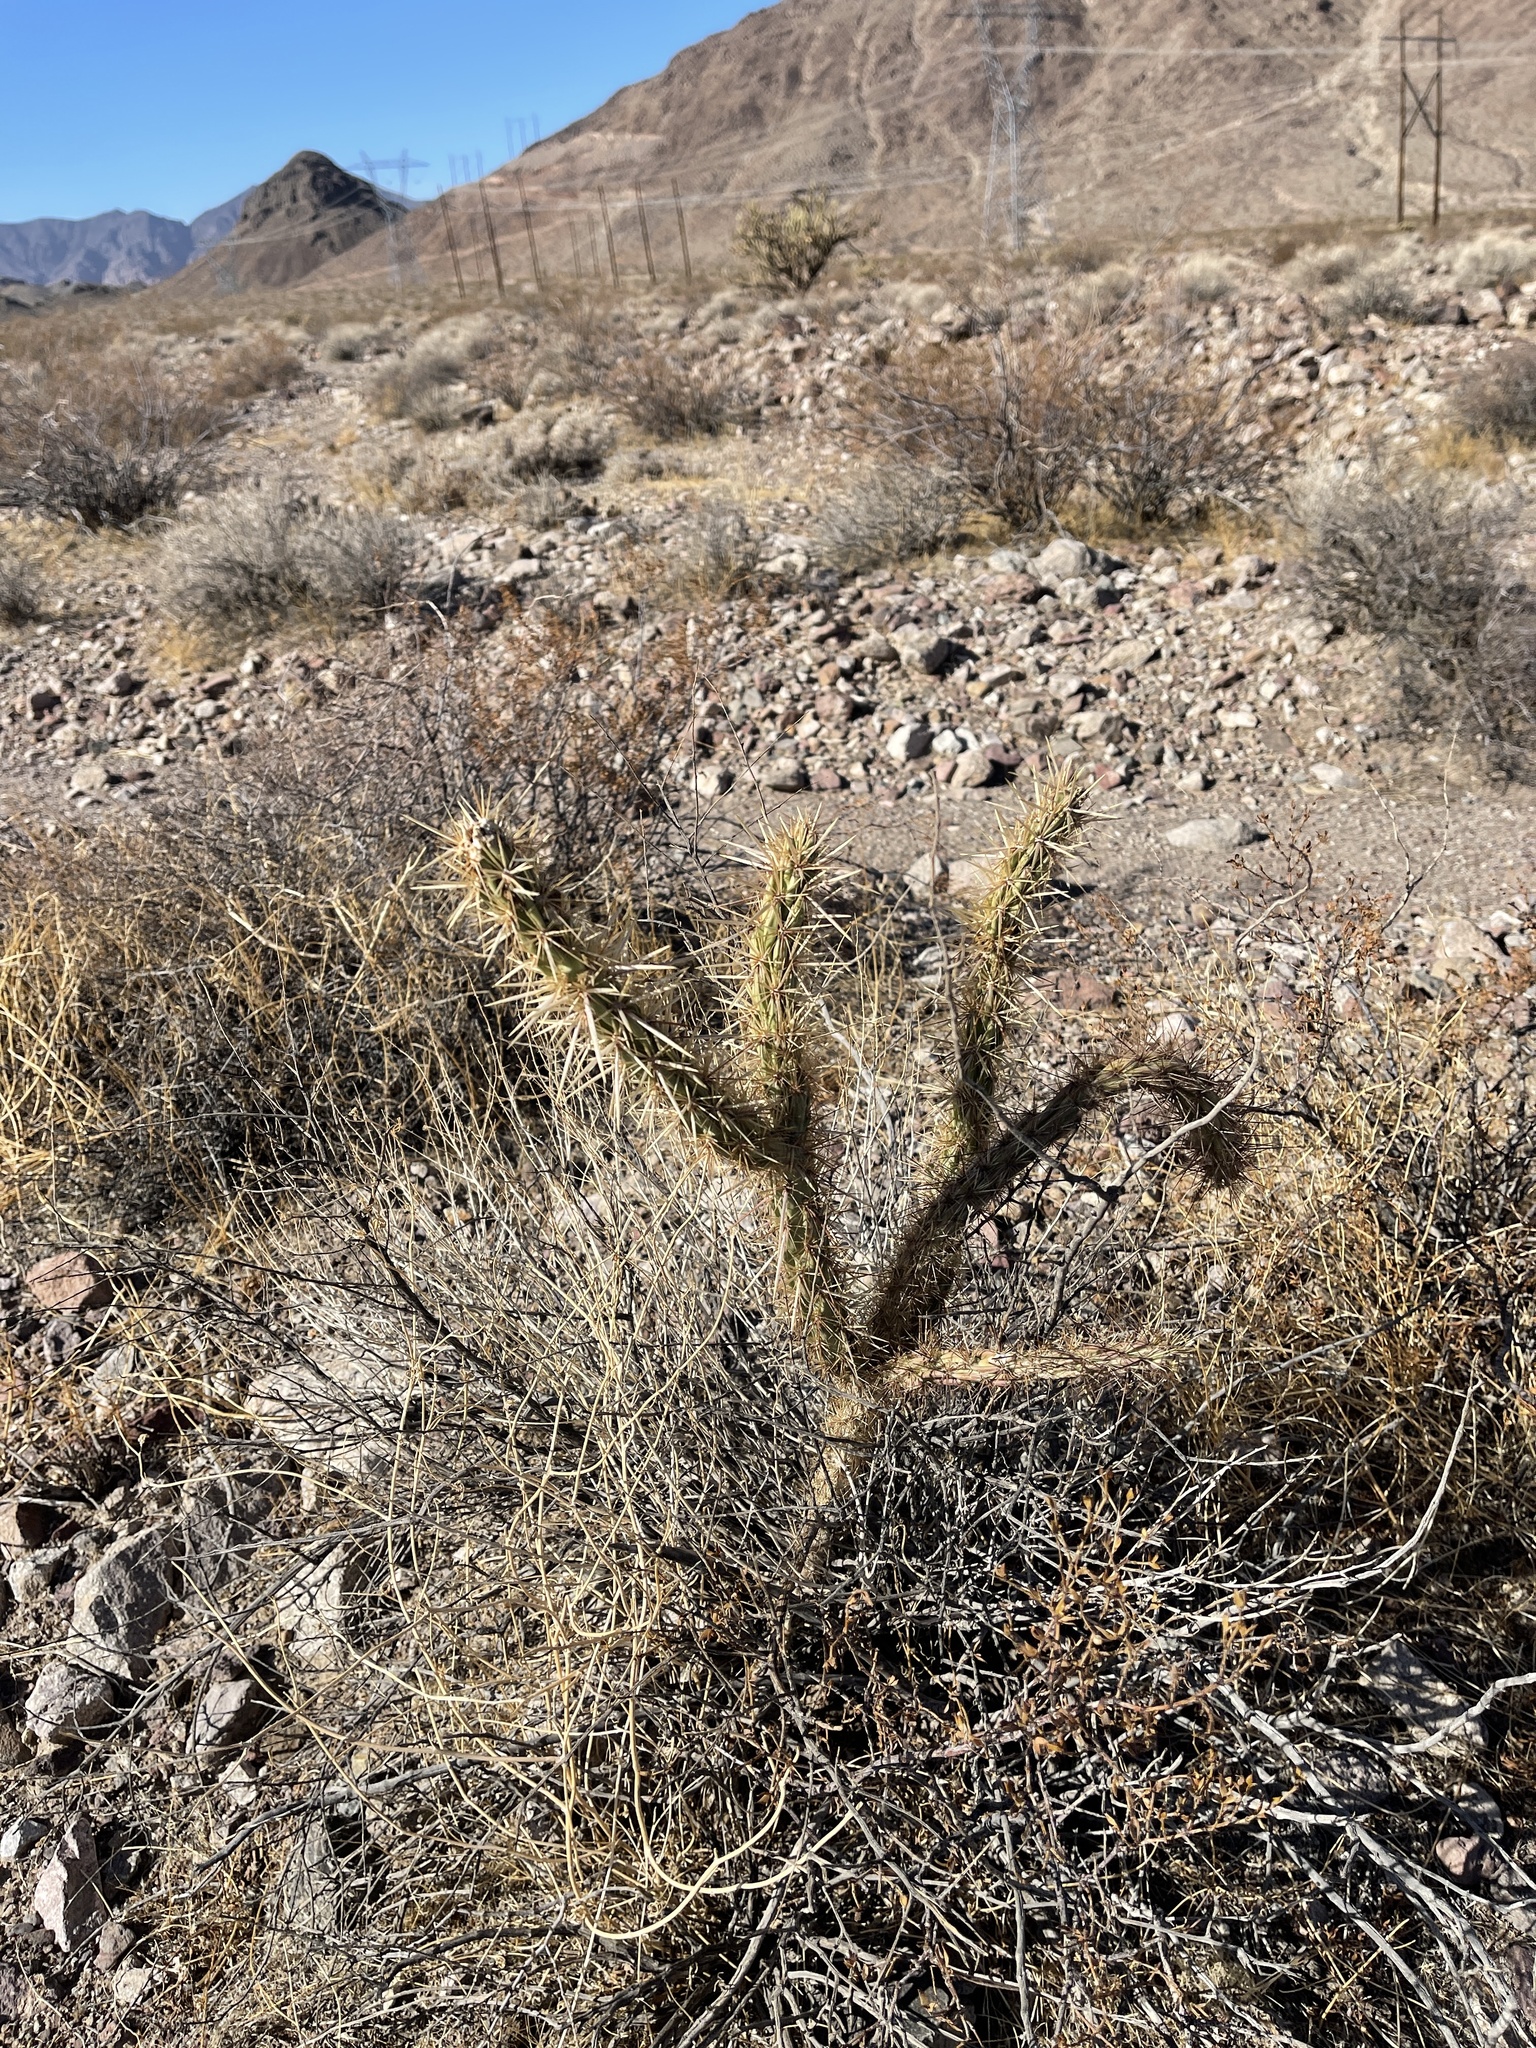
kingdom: Plantae
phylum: Tracheophyta
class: Magnoliopsida
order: Caryophyllales
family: Cactaceae
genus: Cylindropuntia
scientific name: Cylindropuntia acanthocarpa
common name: Buckhorn cholla
